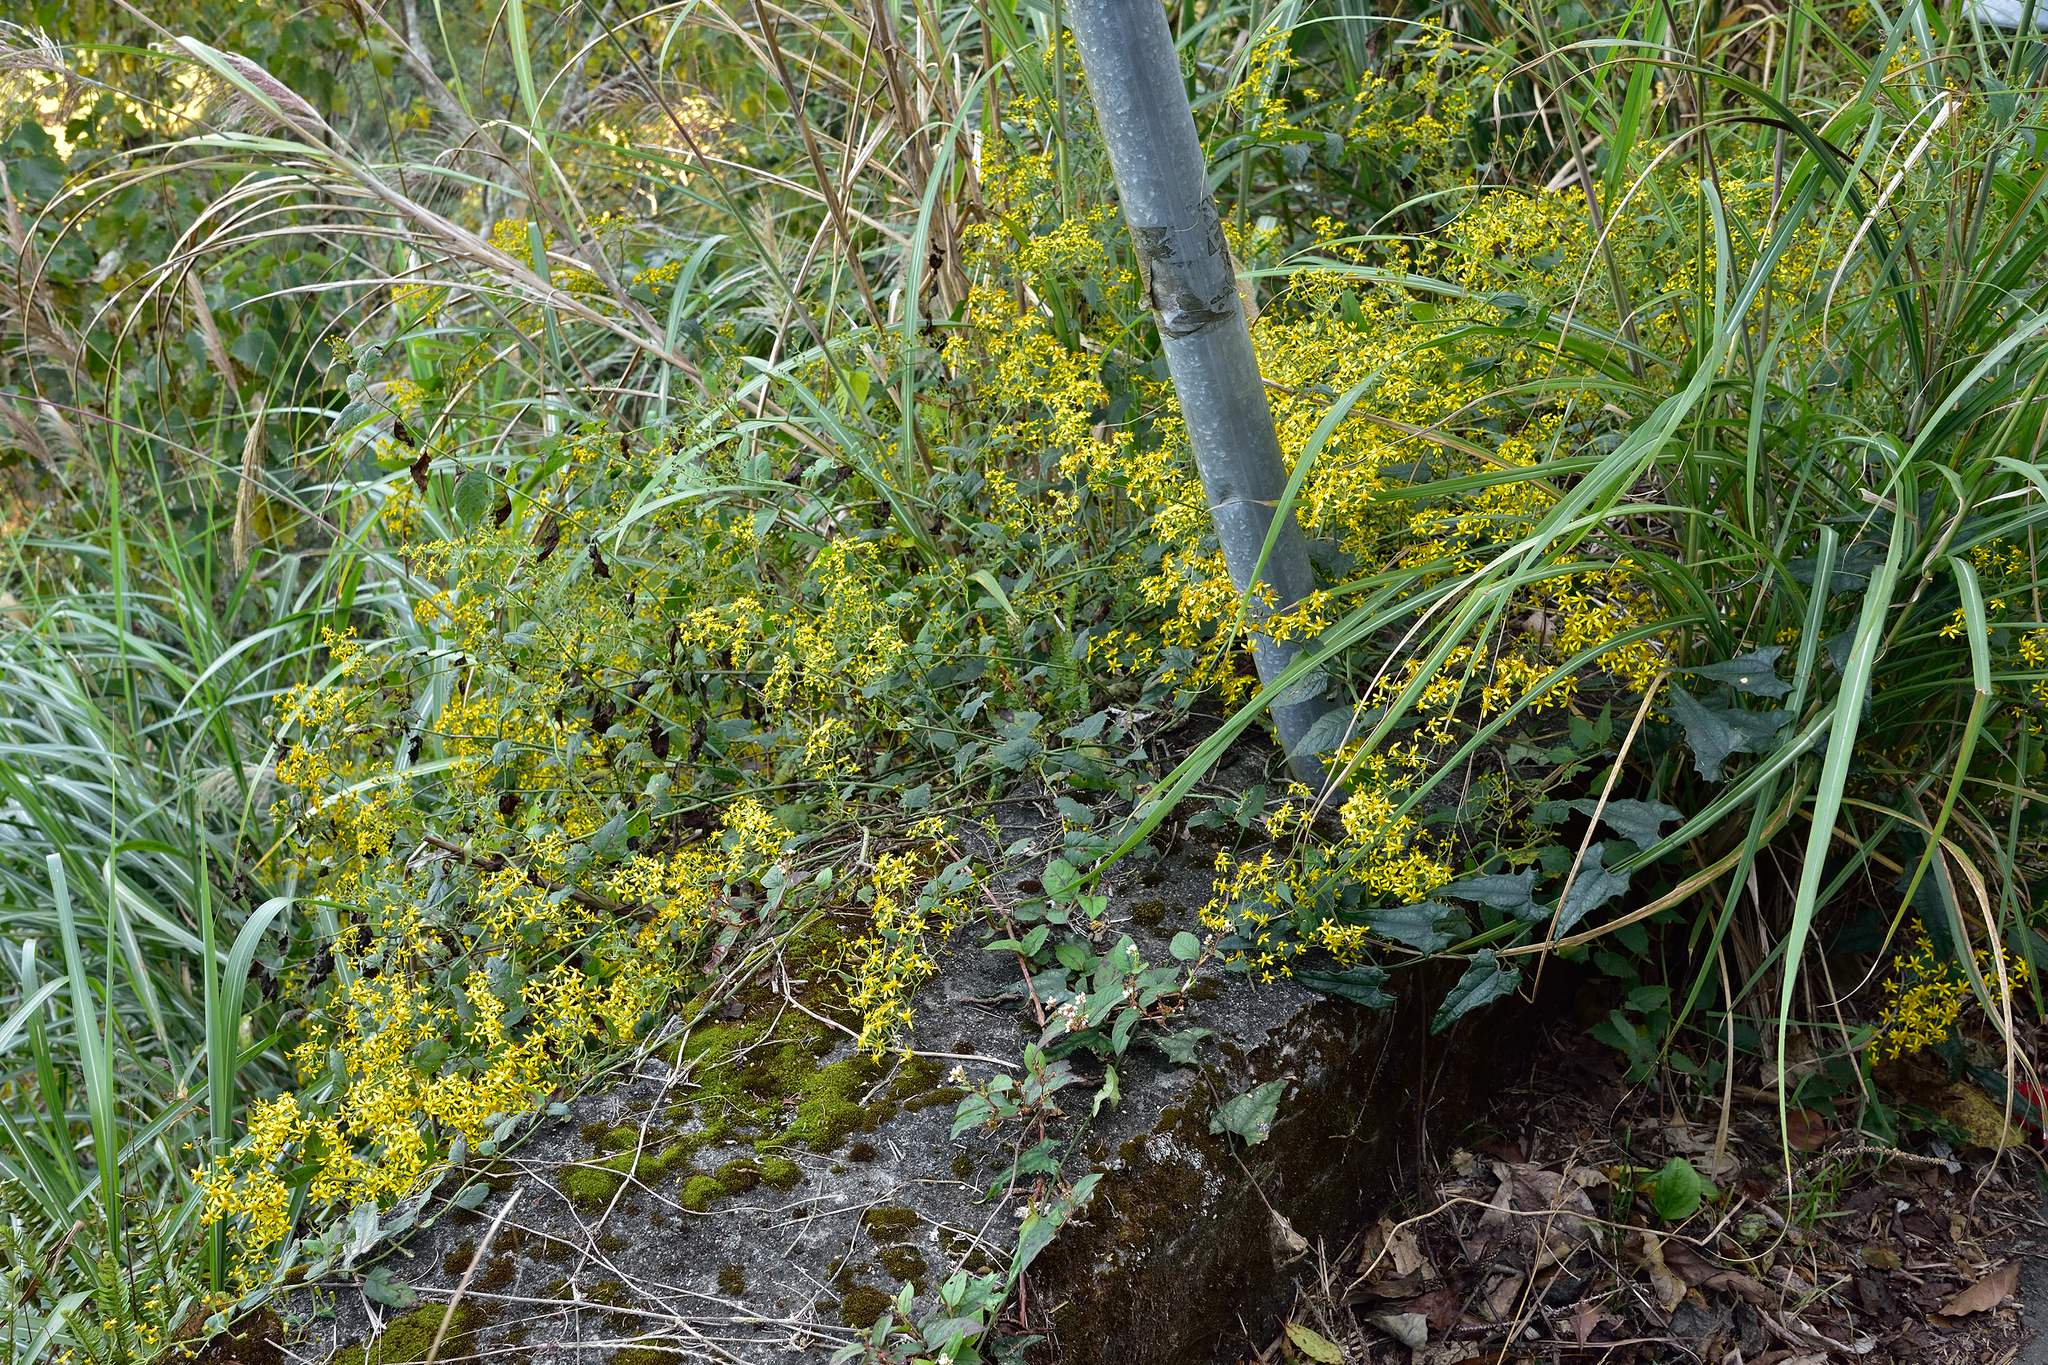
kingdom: Plantae
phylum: Tracheophyta
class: Magnoliopsida
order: Asterales
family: Asteraceae
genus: Senecio
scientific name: Senecio scandens
